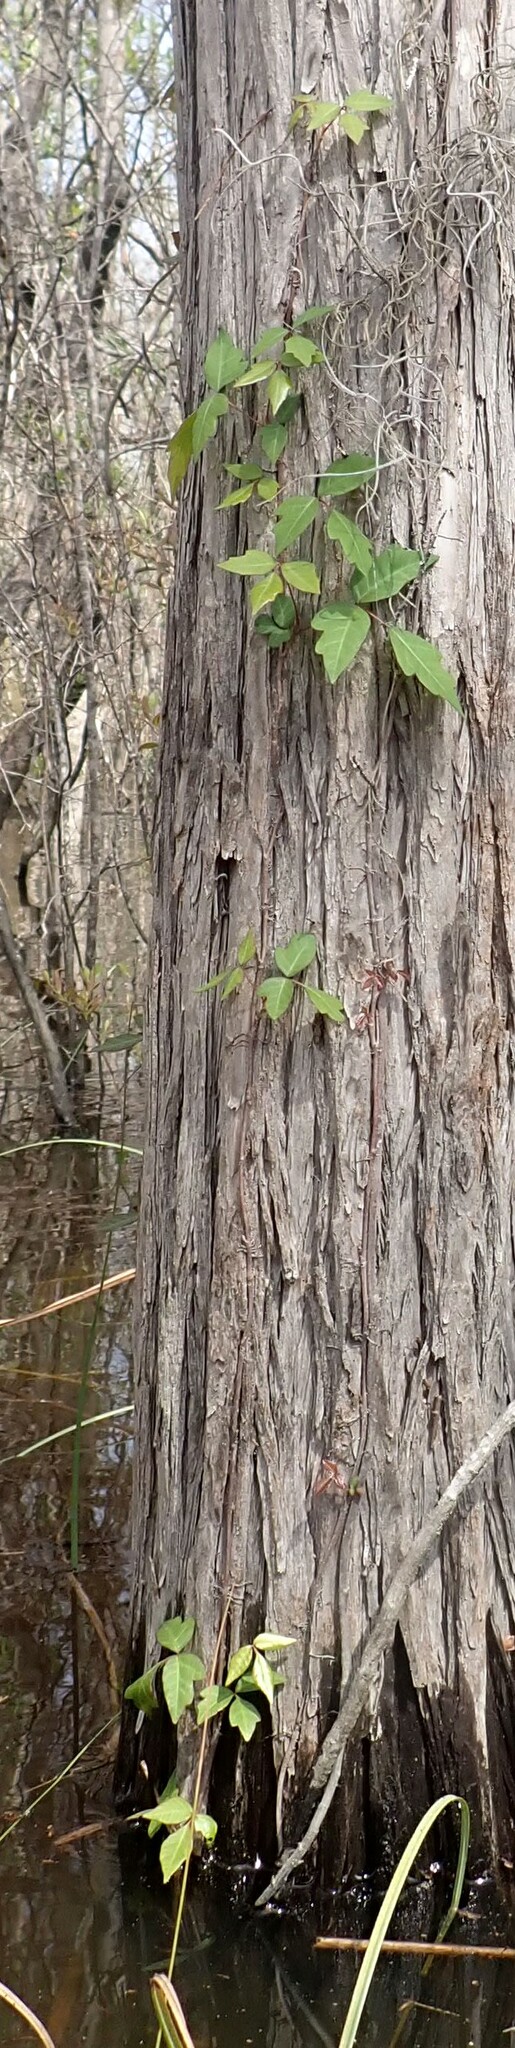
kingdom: Plantae
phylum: Tracheophyta
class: Magnoliopsida
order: Sapindales
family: Anacardiaceae
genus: Toxicodendron
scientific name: Toxicodendron radicans
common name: Poison ivy
